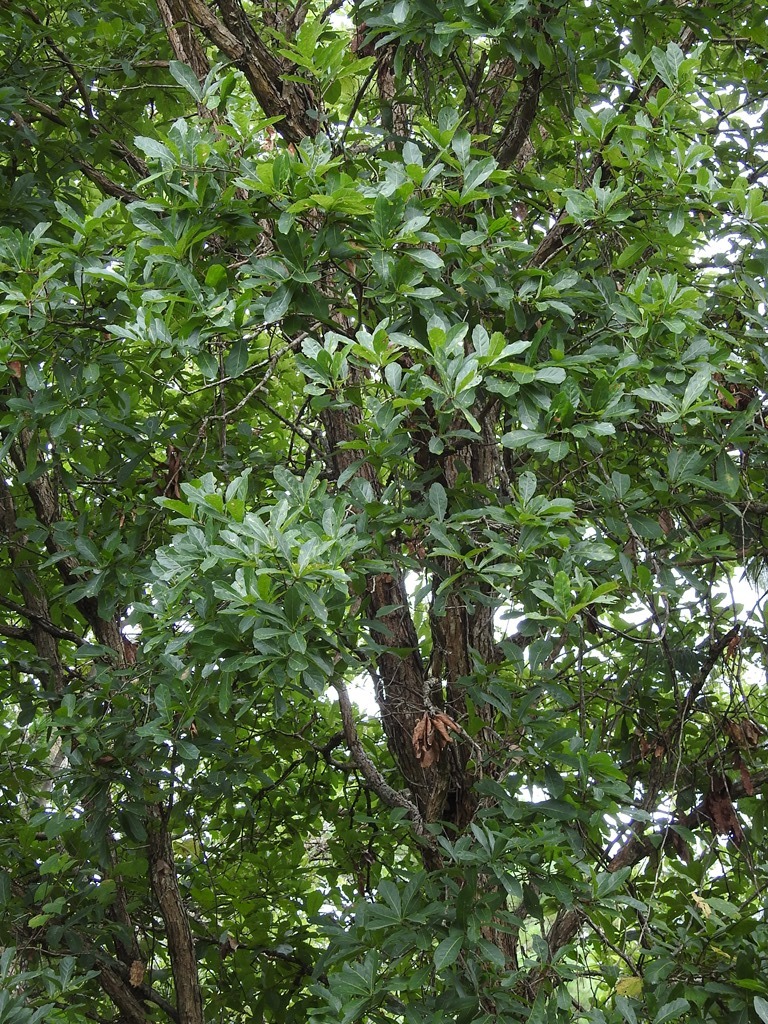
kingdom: Plantae
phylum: Tracheophyta
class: Magnoliopsida
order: Fagales
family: Fagaceae
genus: Quercus
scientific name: Quercus glaucescens
